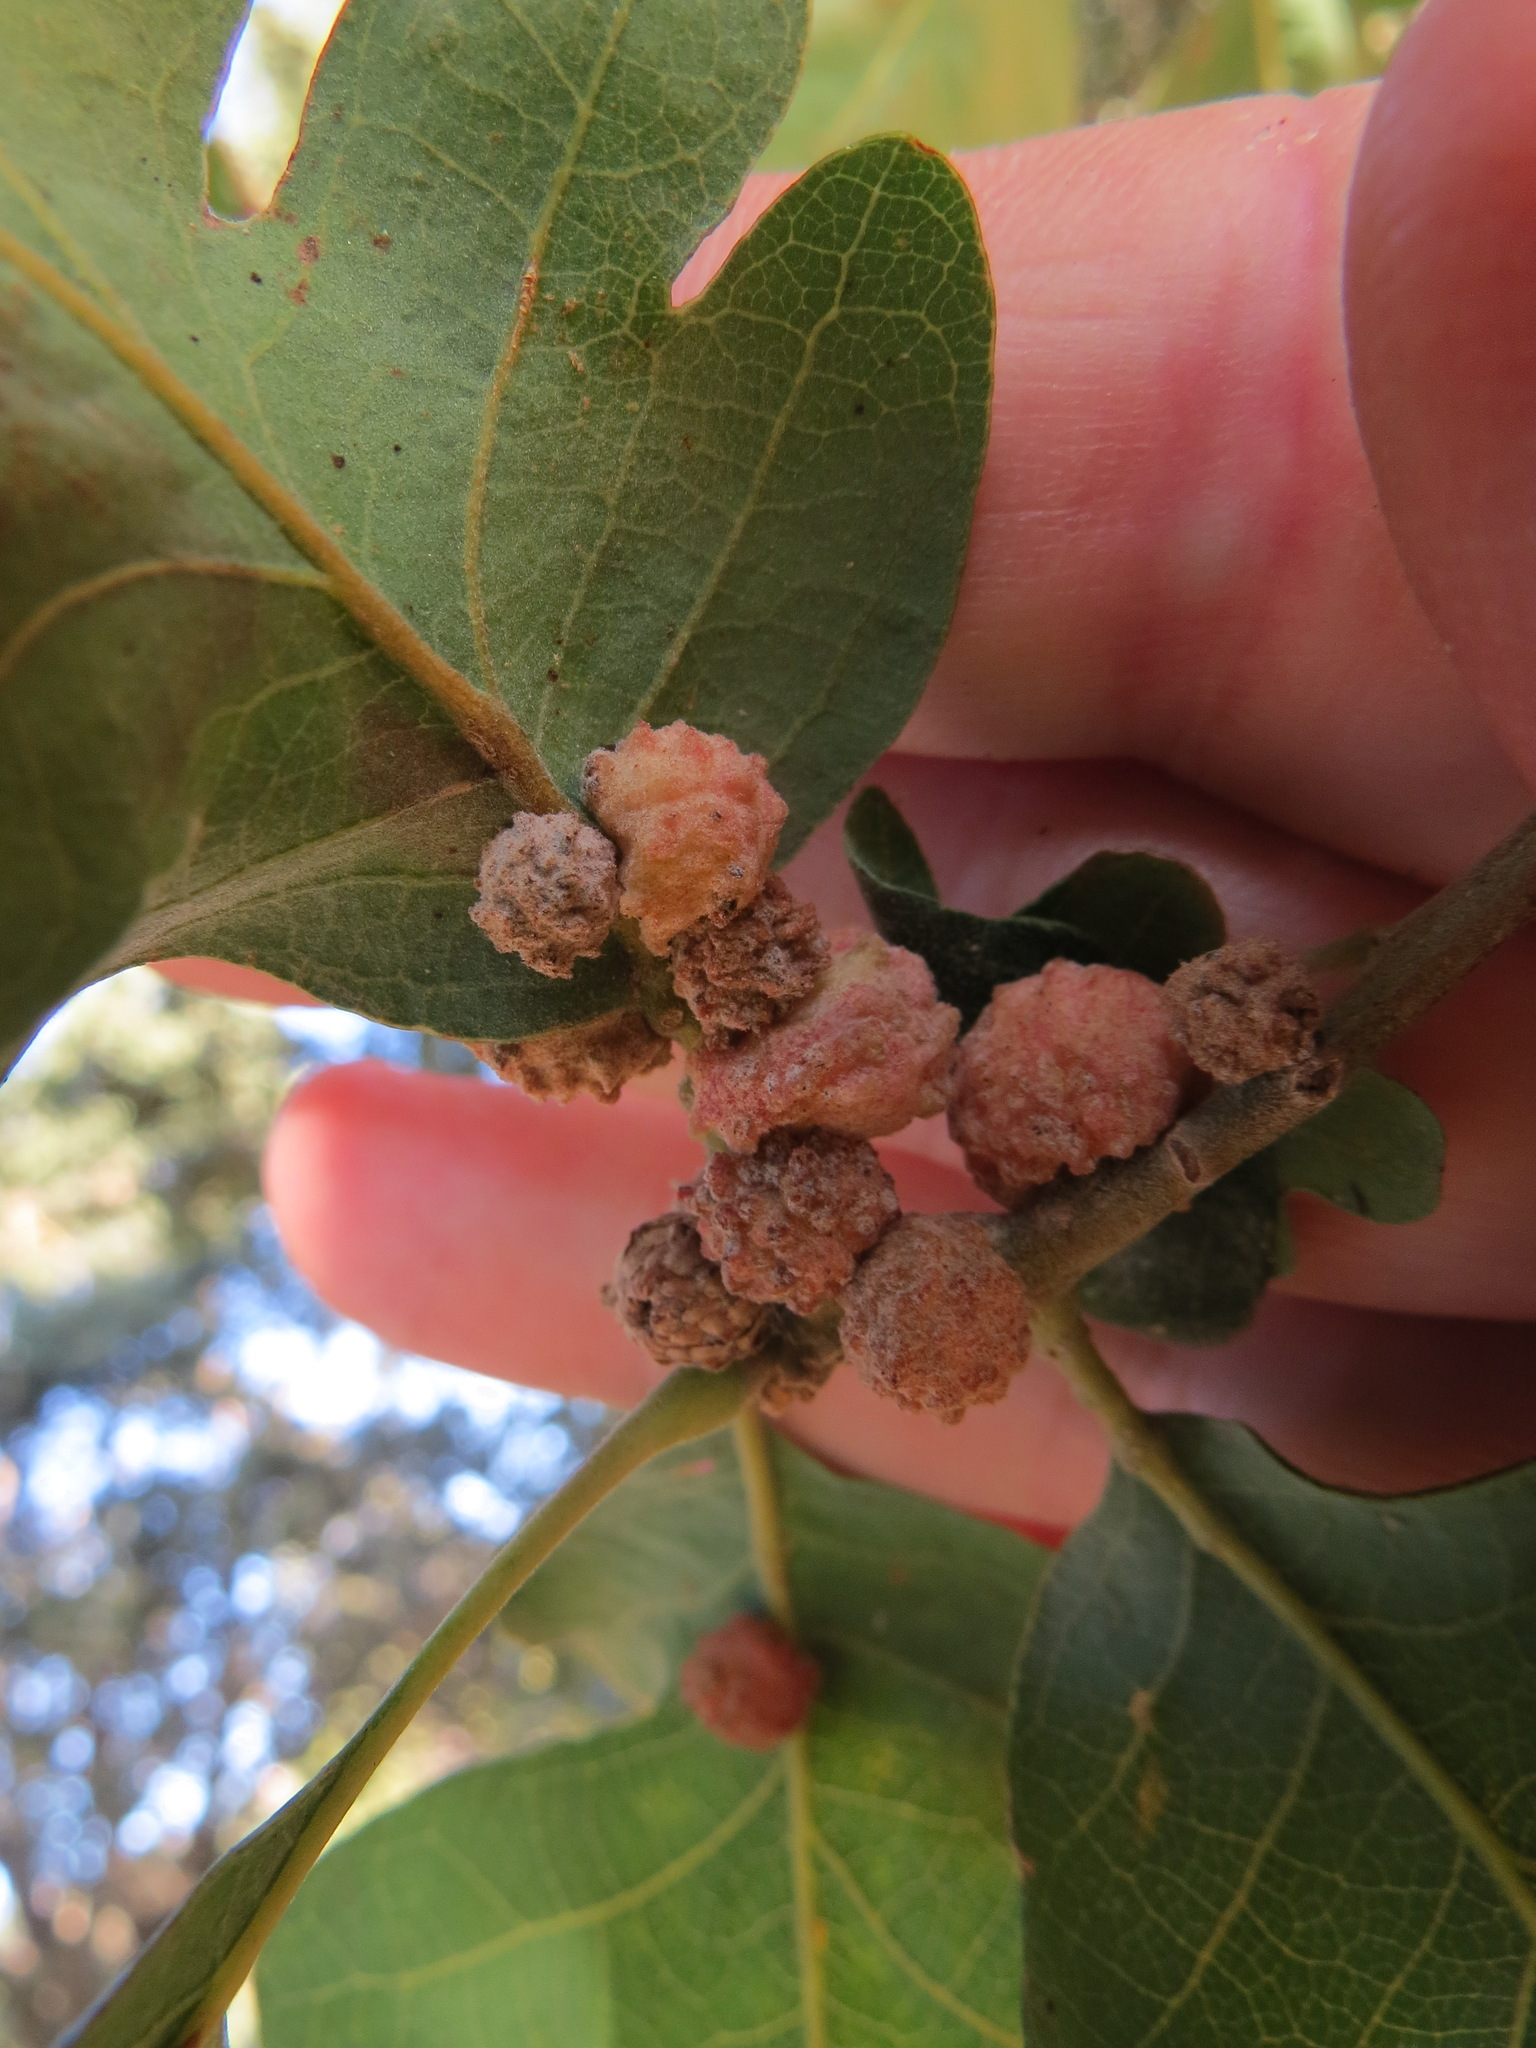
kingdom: Animalia
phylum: Arthropoda
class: Insecta
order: Hymenoptera
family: Cynipidae
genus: Cynips
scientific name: Cynips conspicua
